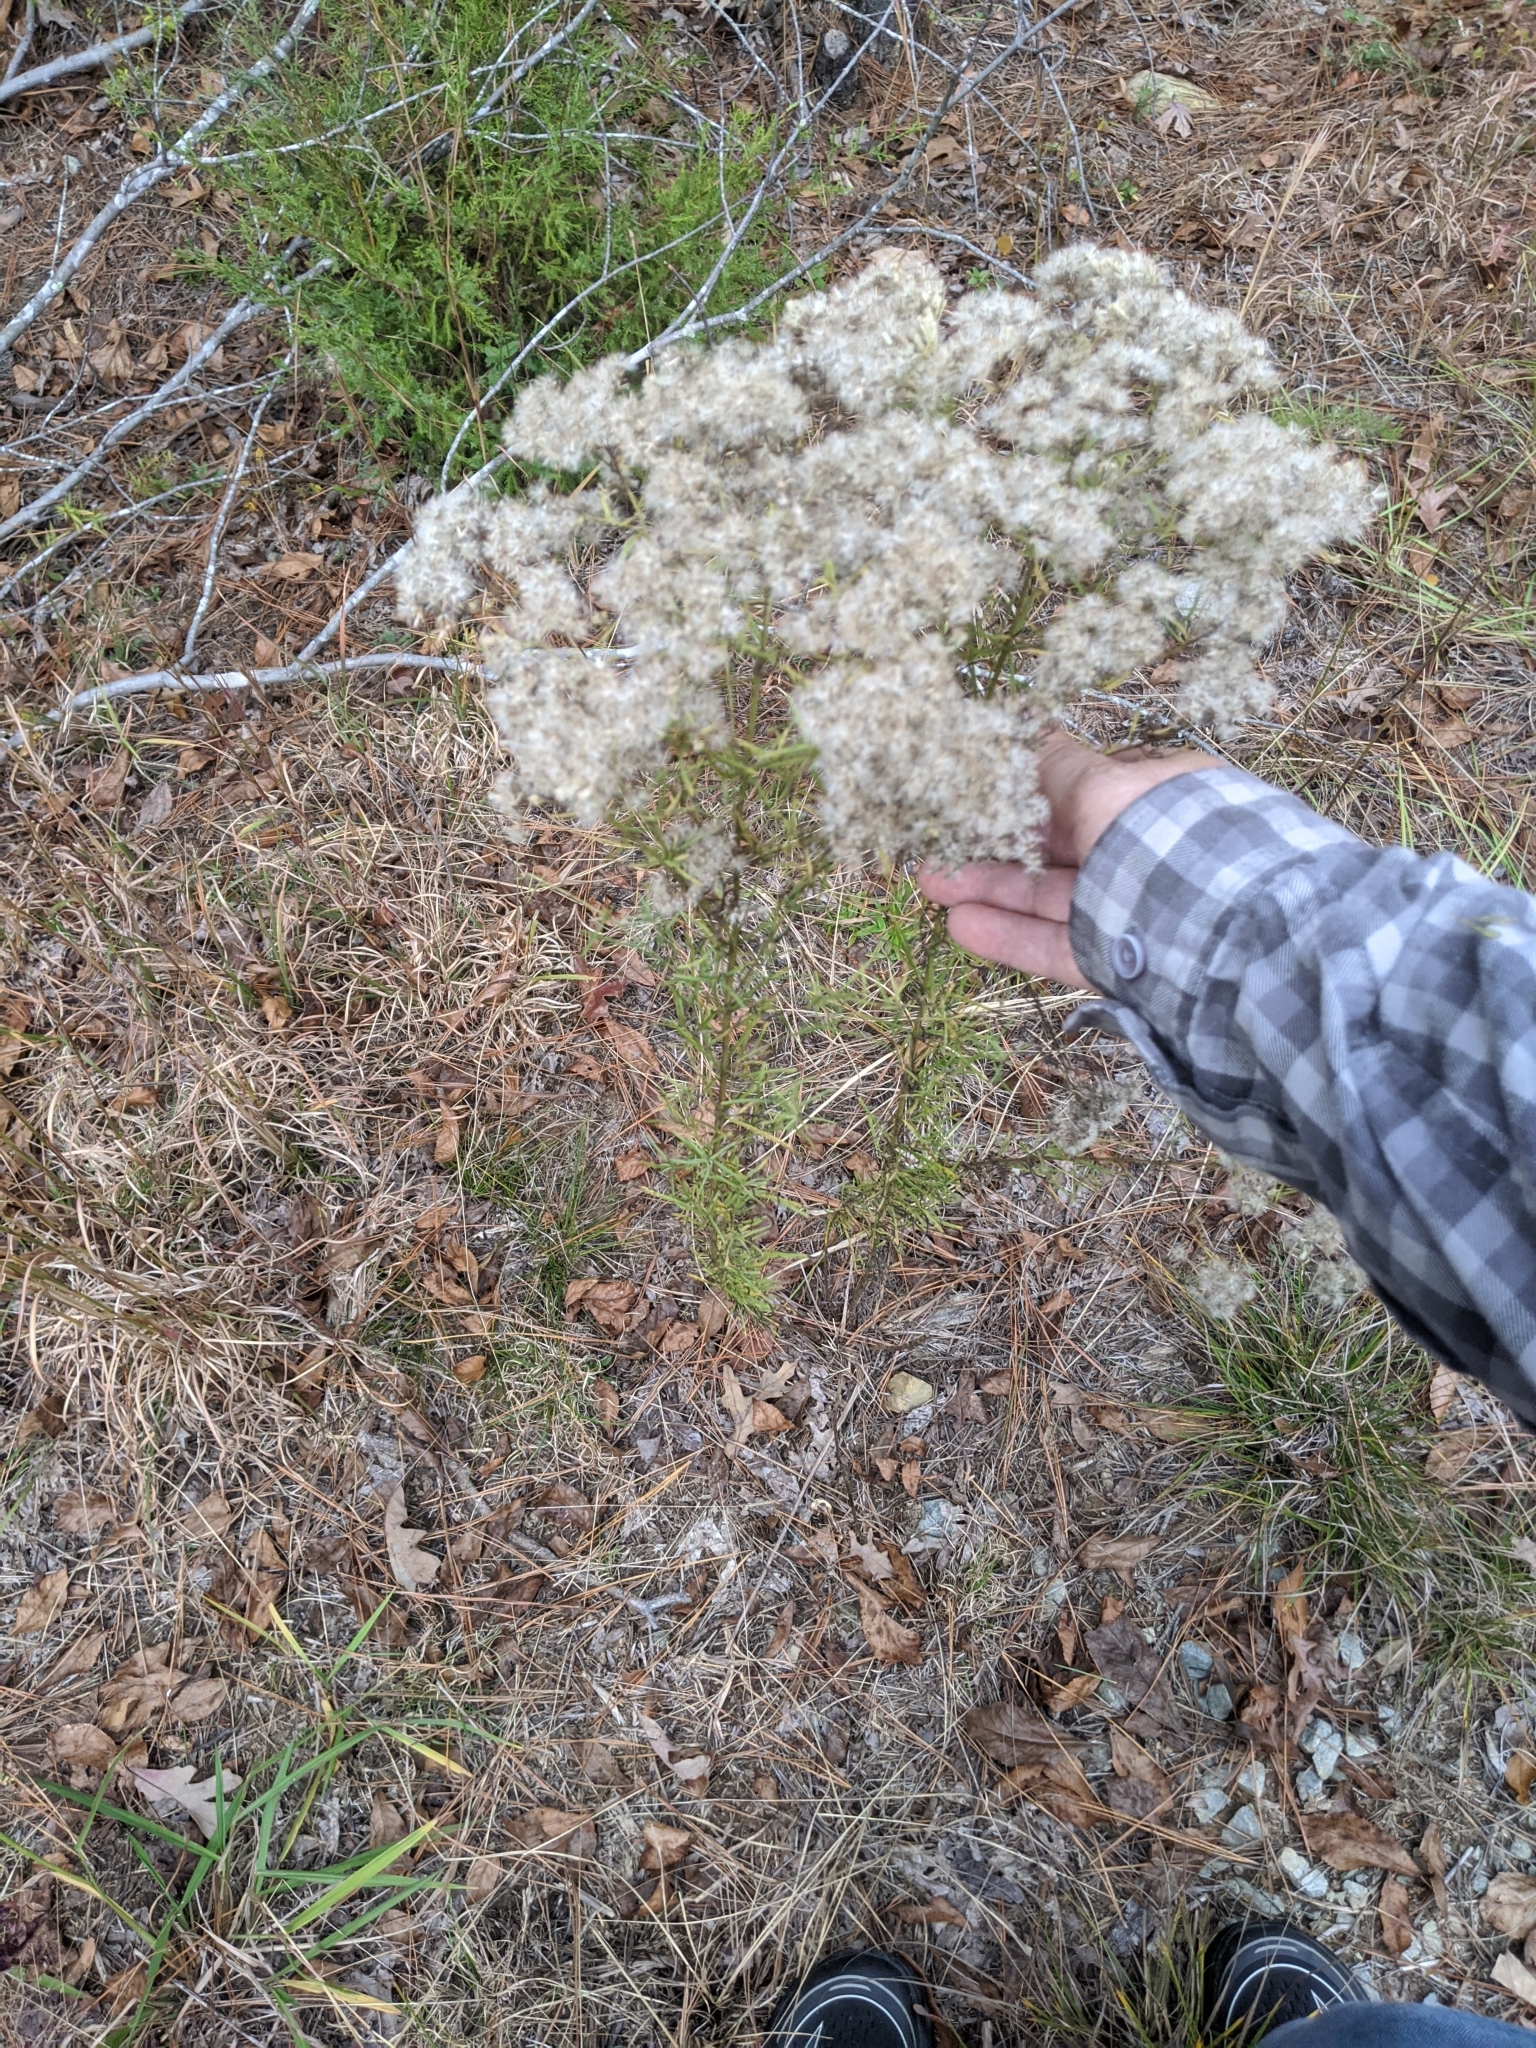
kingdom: Plantae
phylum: Tracheophyta
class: Magnoliopsida
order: Asterales
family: Asteraceae
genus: Eupatorium
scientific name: Eupatorium hyssopifolium
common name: Hyssop-leaf thoroughwort
